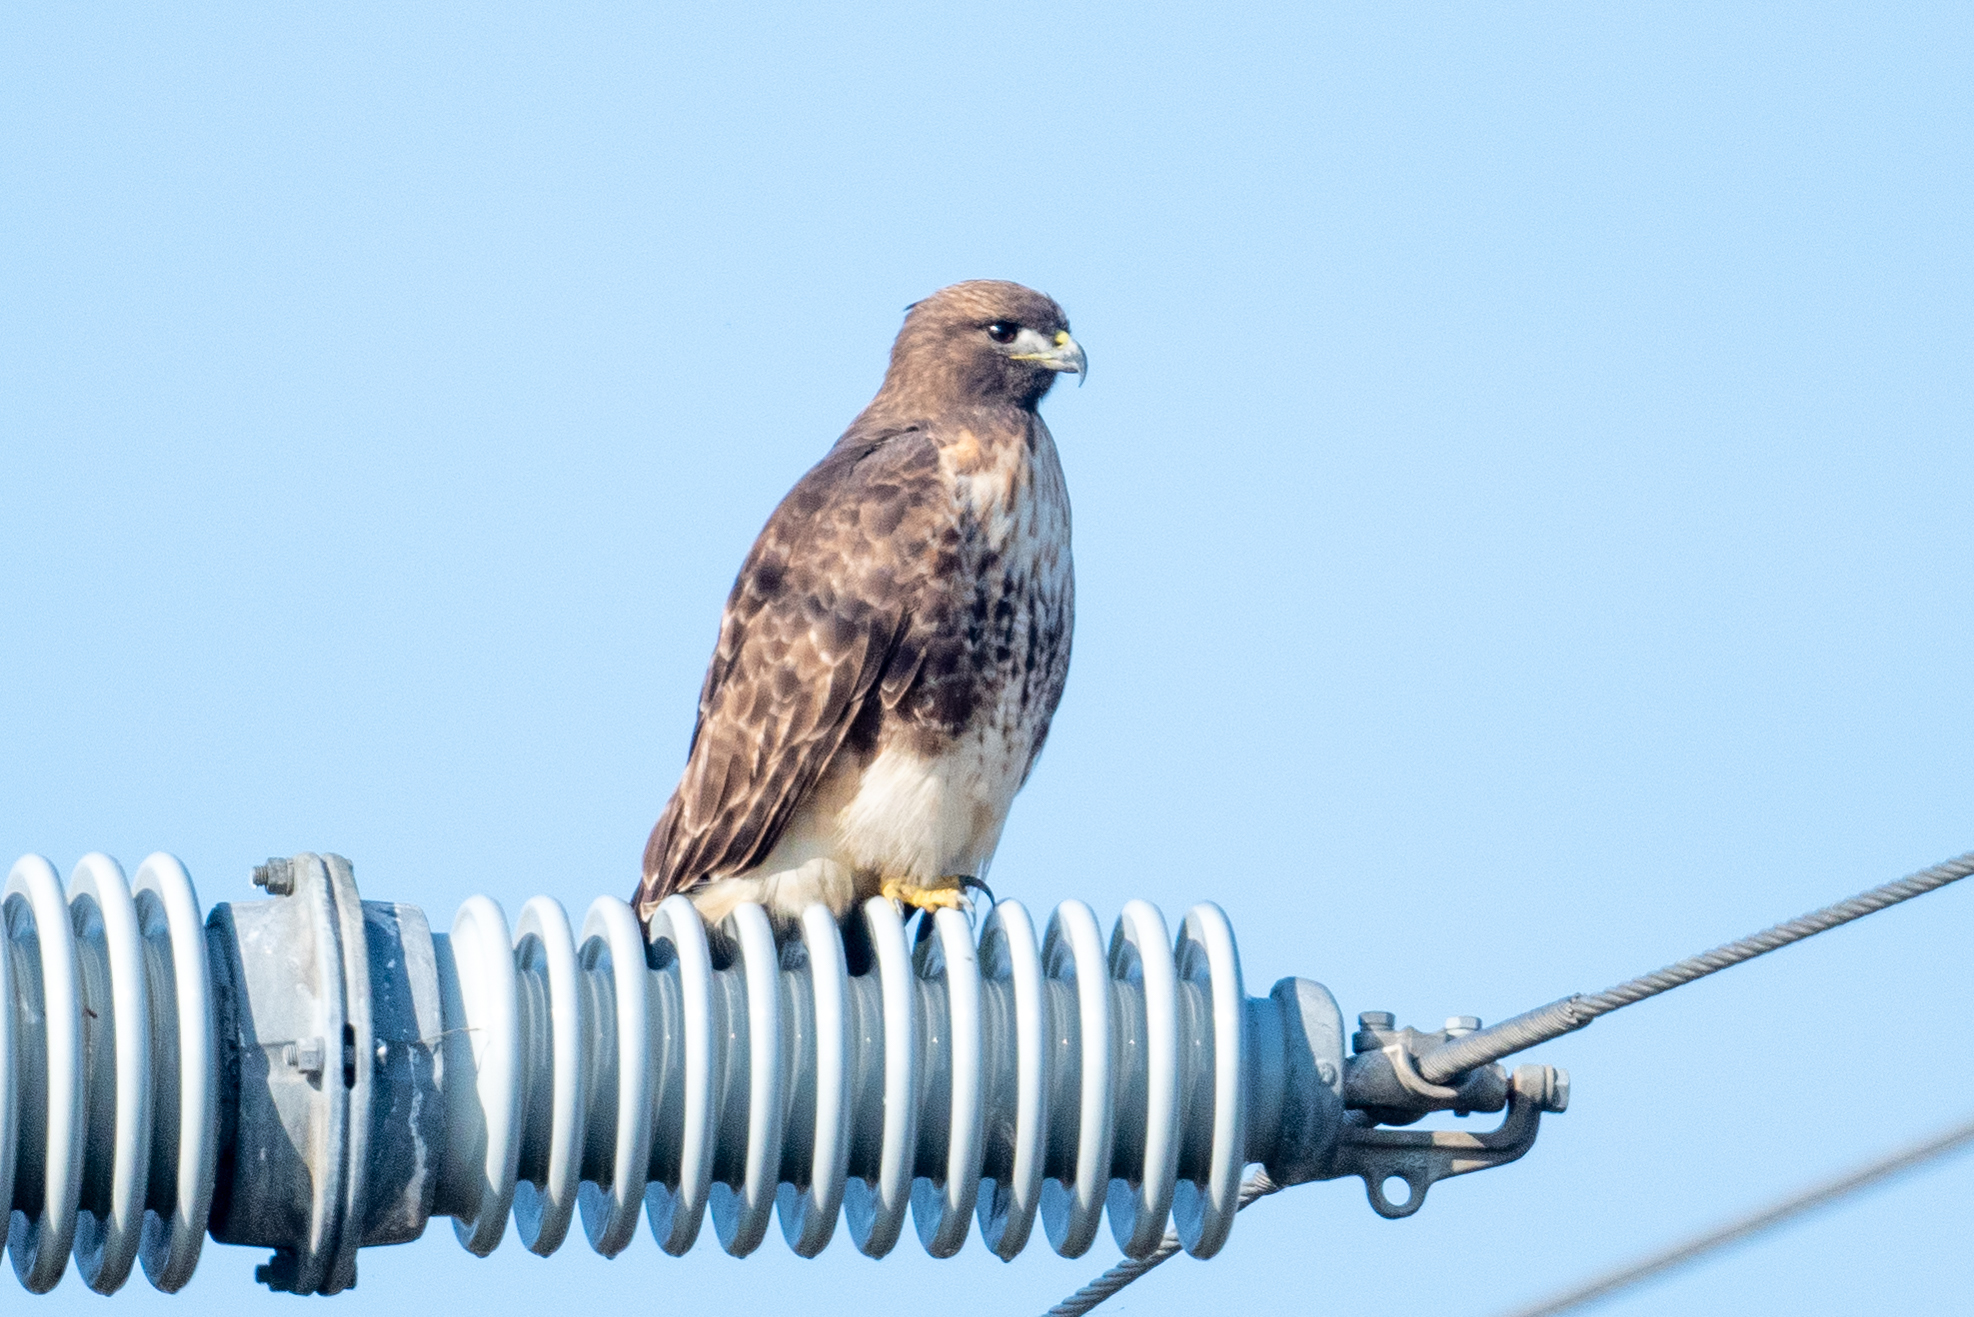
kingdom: Animalia
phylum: Chordata
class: Aves
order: Accipitriformes
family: Accipitridae
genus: Buteo
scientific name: Buteo jamaicensis
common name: Red-tailed hawk
